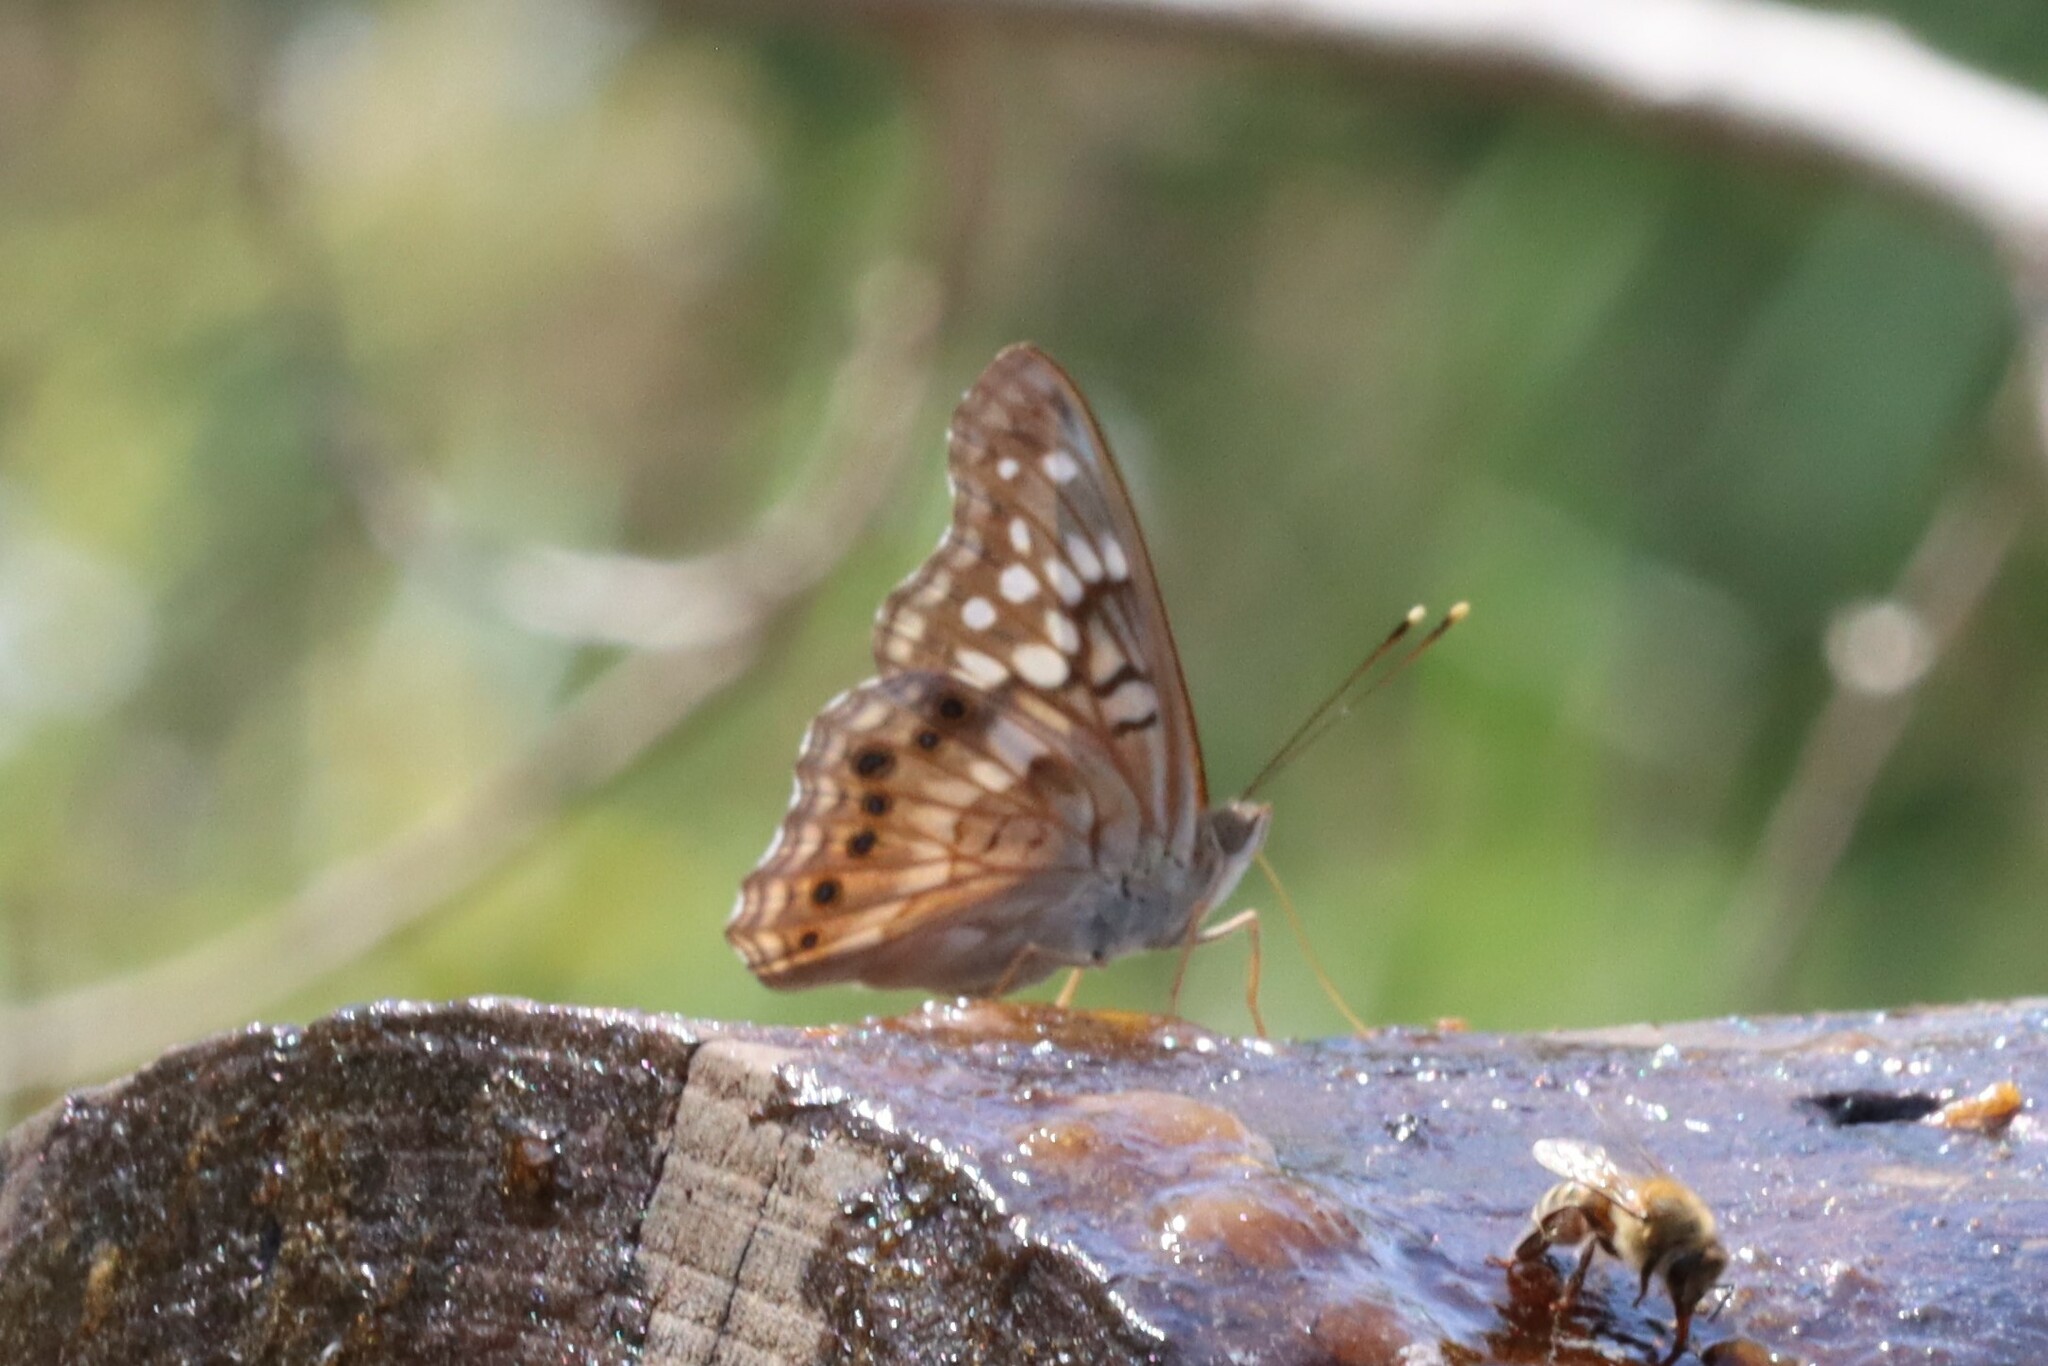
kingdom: Animalia
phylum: Arthropoda
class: Insecta
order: Lepidoptera
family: Nymphalidae
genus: Asterocampa
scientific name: Asterocampa clyton
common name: Tawny emperor
